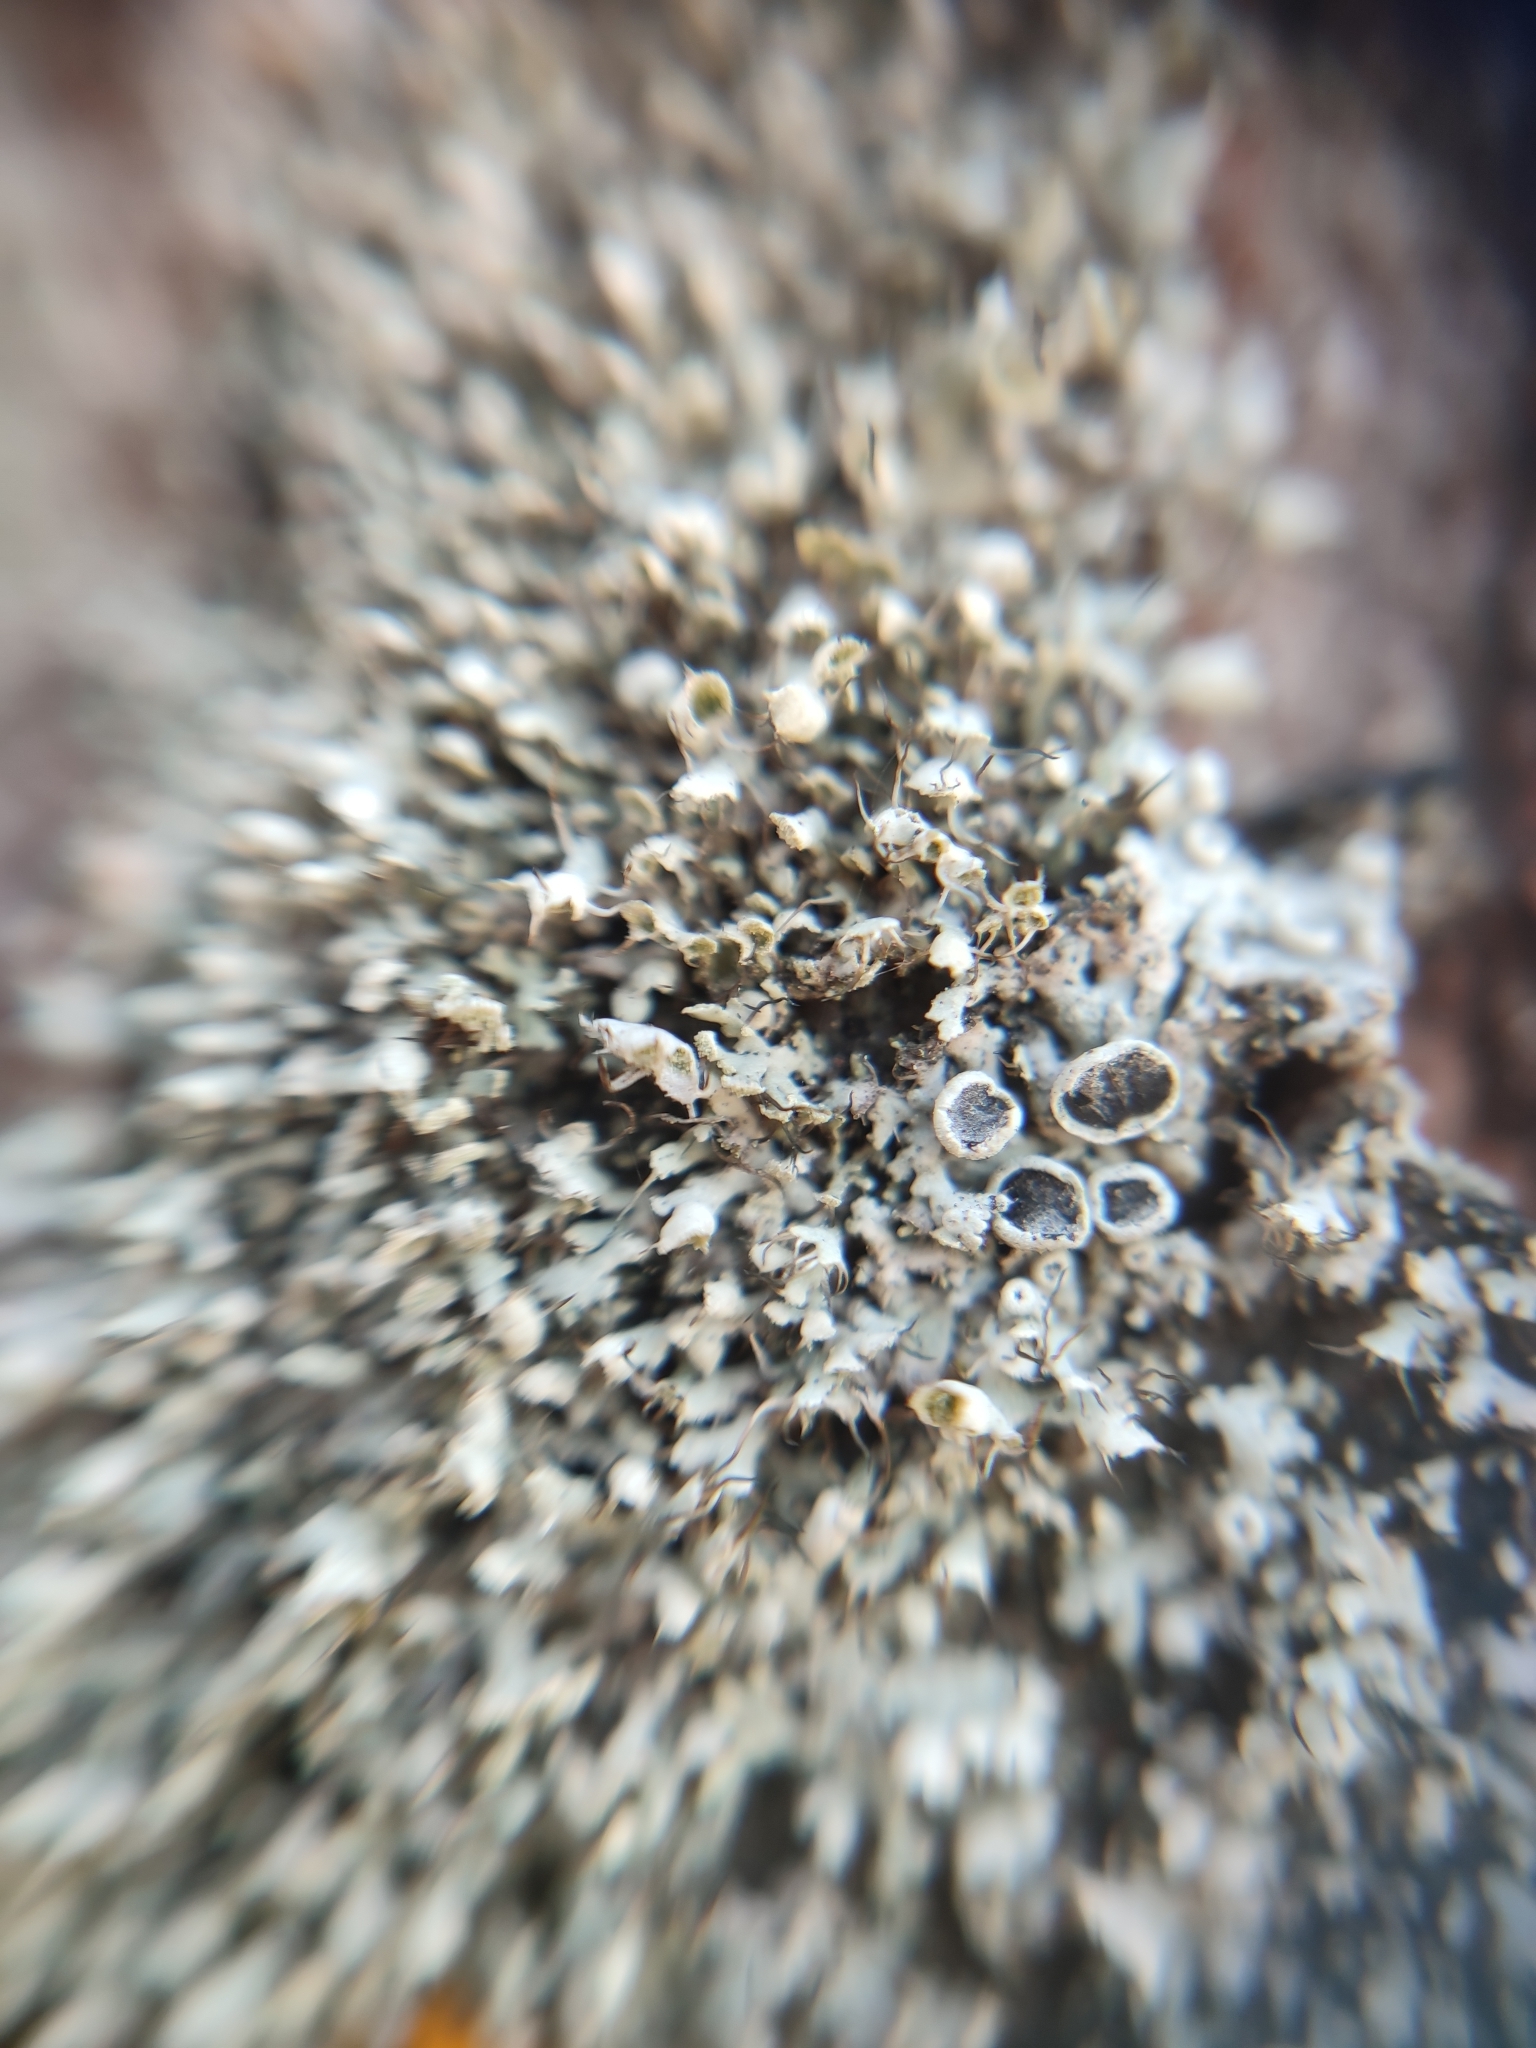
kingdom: Fungi
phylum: Ascomycota
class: Lecanoromycetes
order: Caliciales
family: Physciaceae
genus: Physcia
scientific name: Physcia adscendens
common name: Hooded rosette lichen
